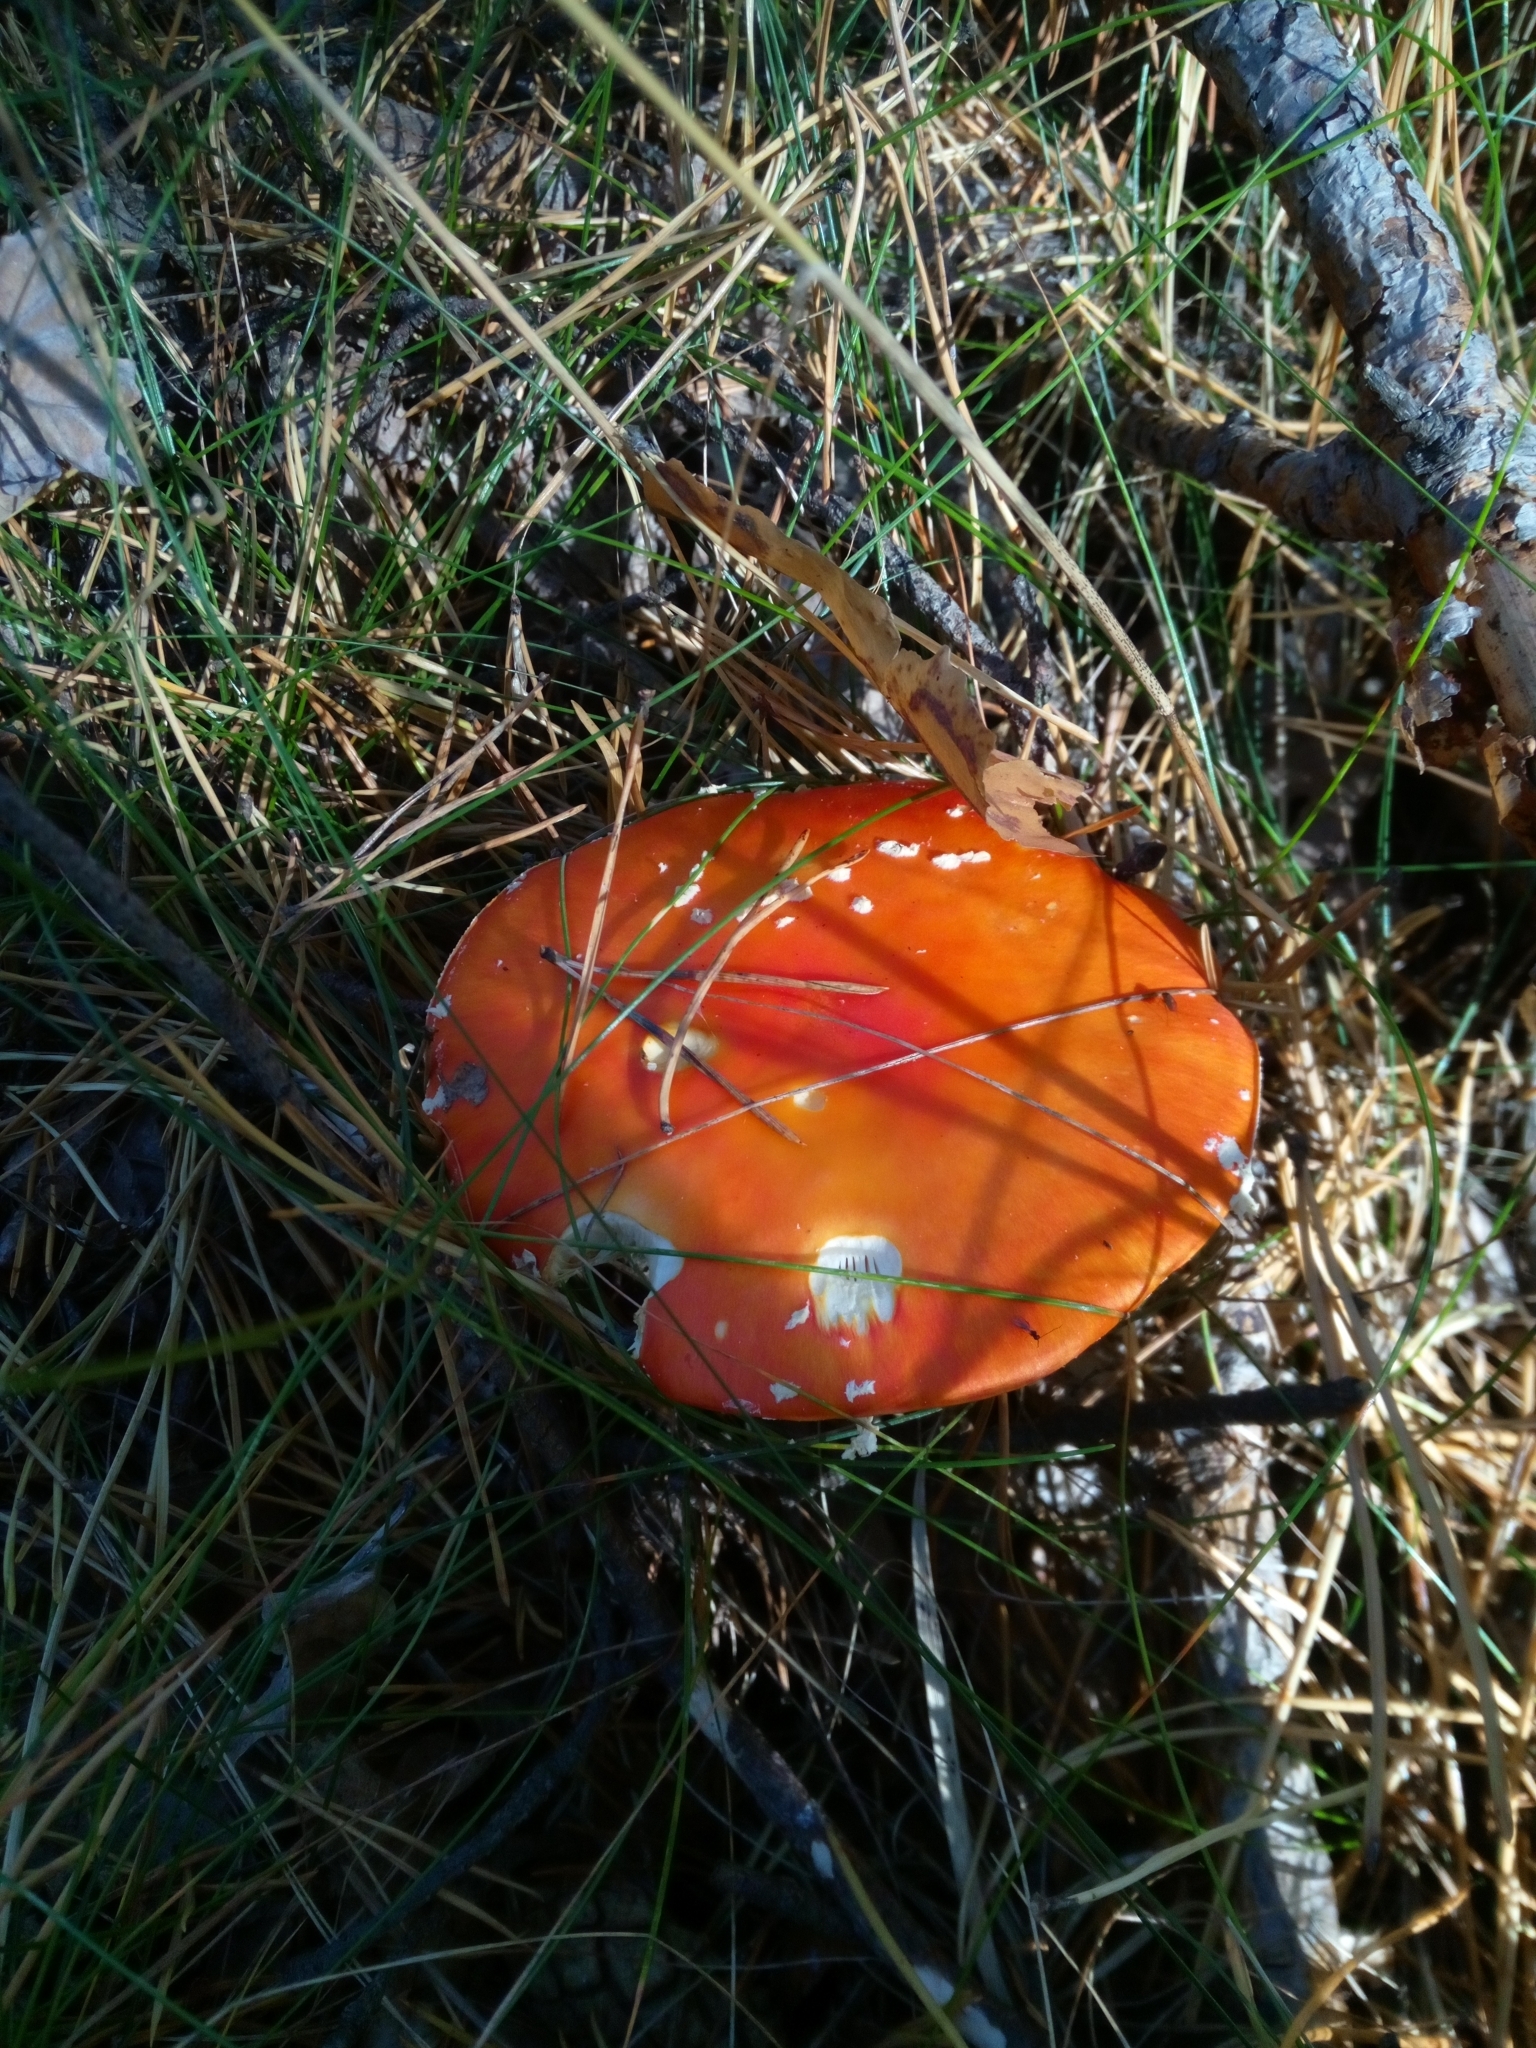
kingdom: Fungi
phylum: Basidiomycota
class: Agaricomycetes
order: Agaricales
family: Amanitaceae
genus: Amanita
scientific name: Amanita muscaria
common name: Fly agaric
